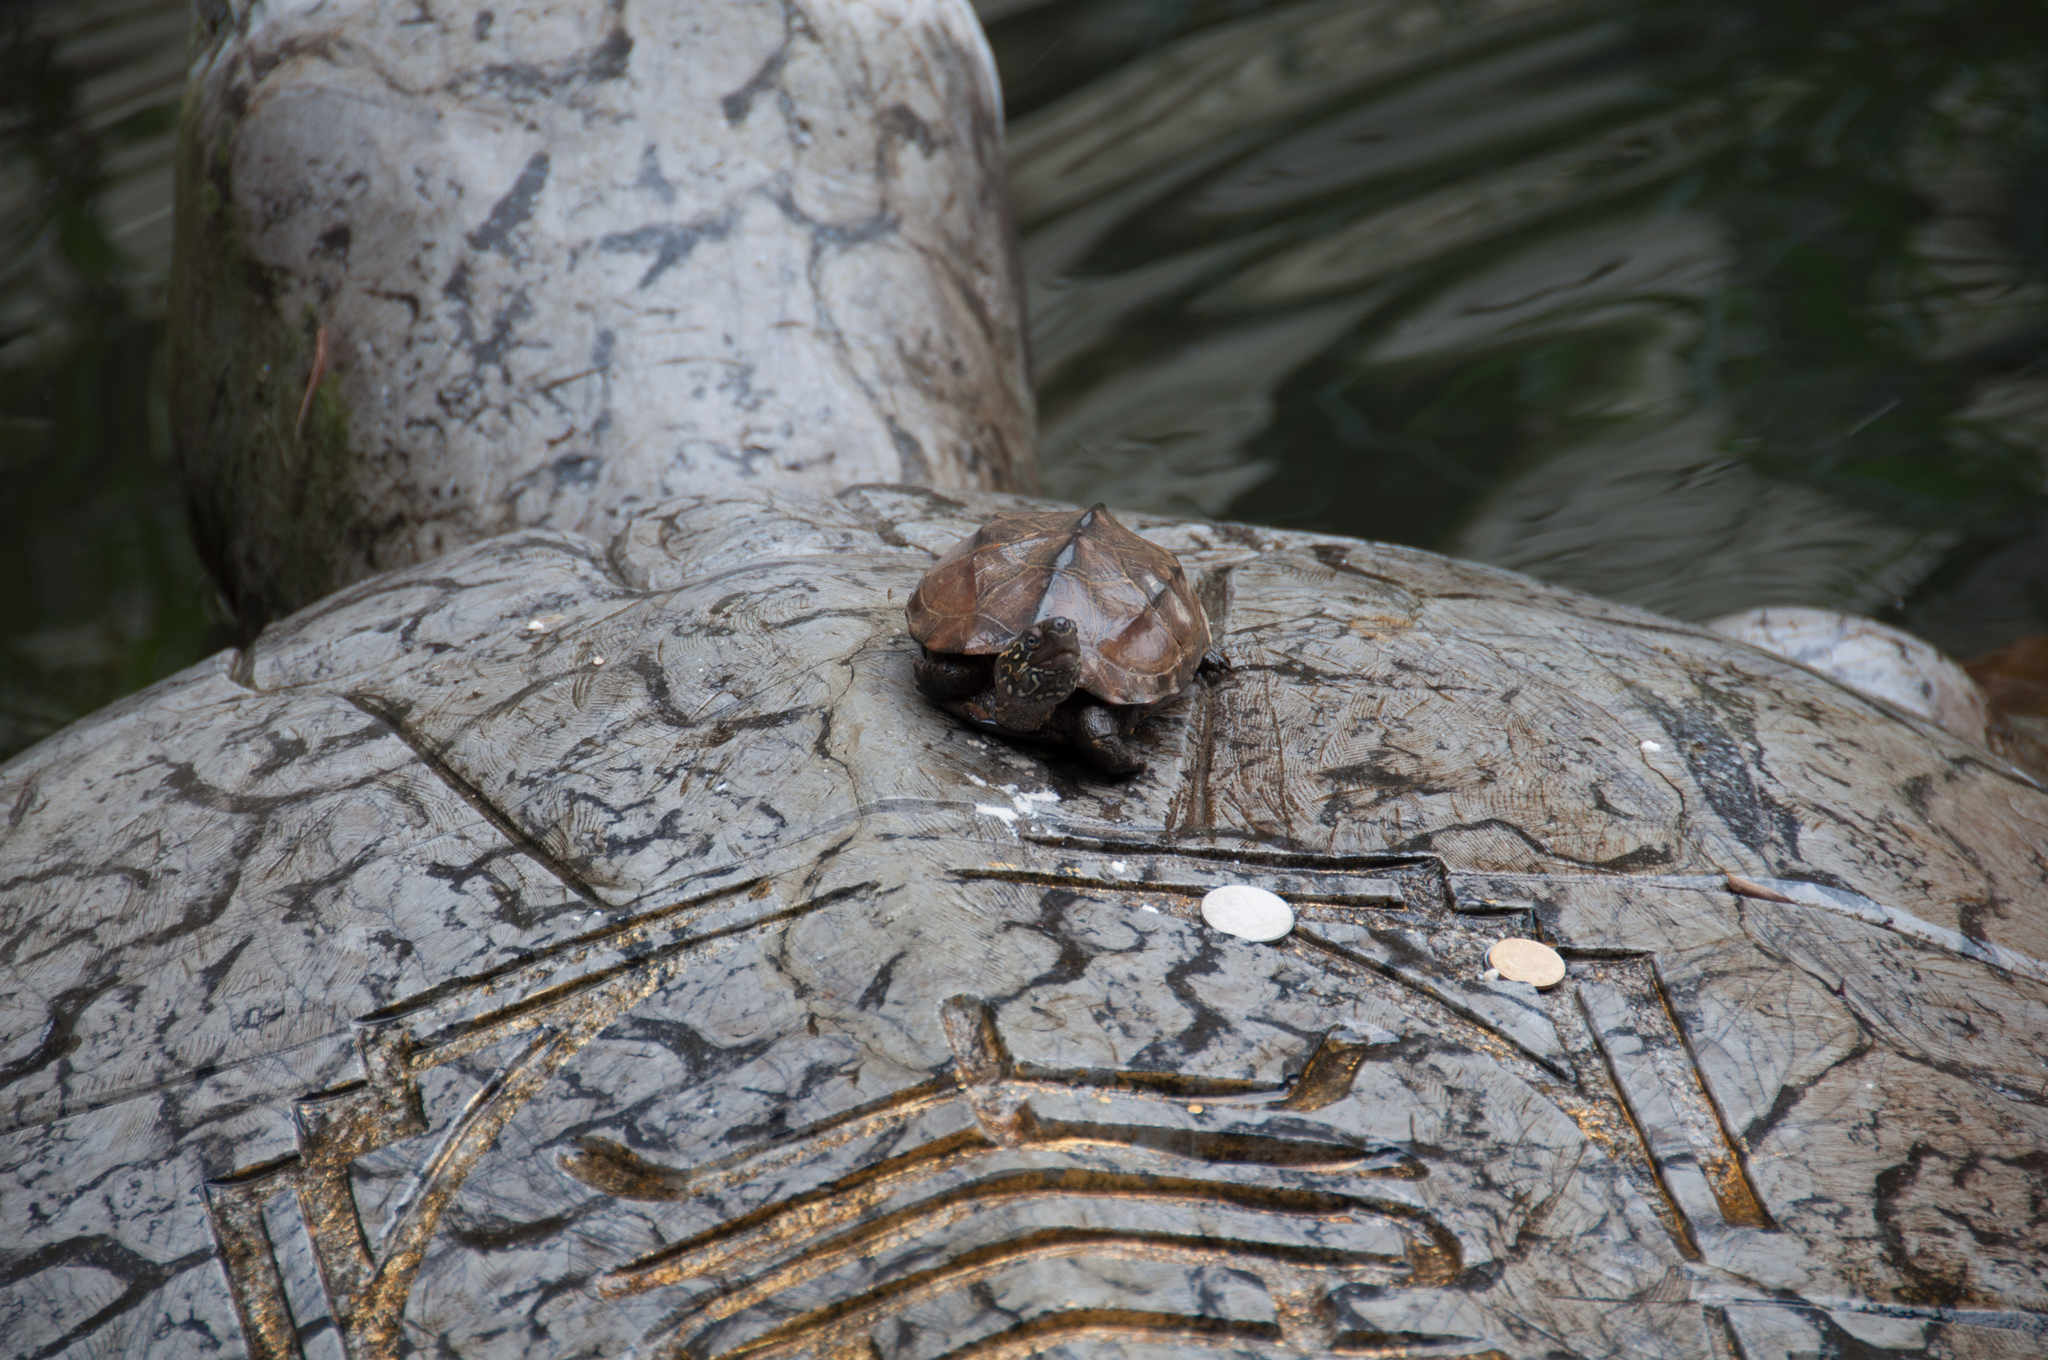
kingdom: Animalia
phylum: Chordata
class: Testudines
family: Geoemydidae
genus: Mauremys
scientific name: Mauremys sinensis
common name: Chinese stripe-necked turtle
